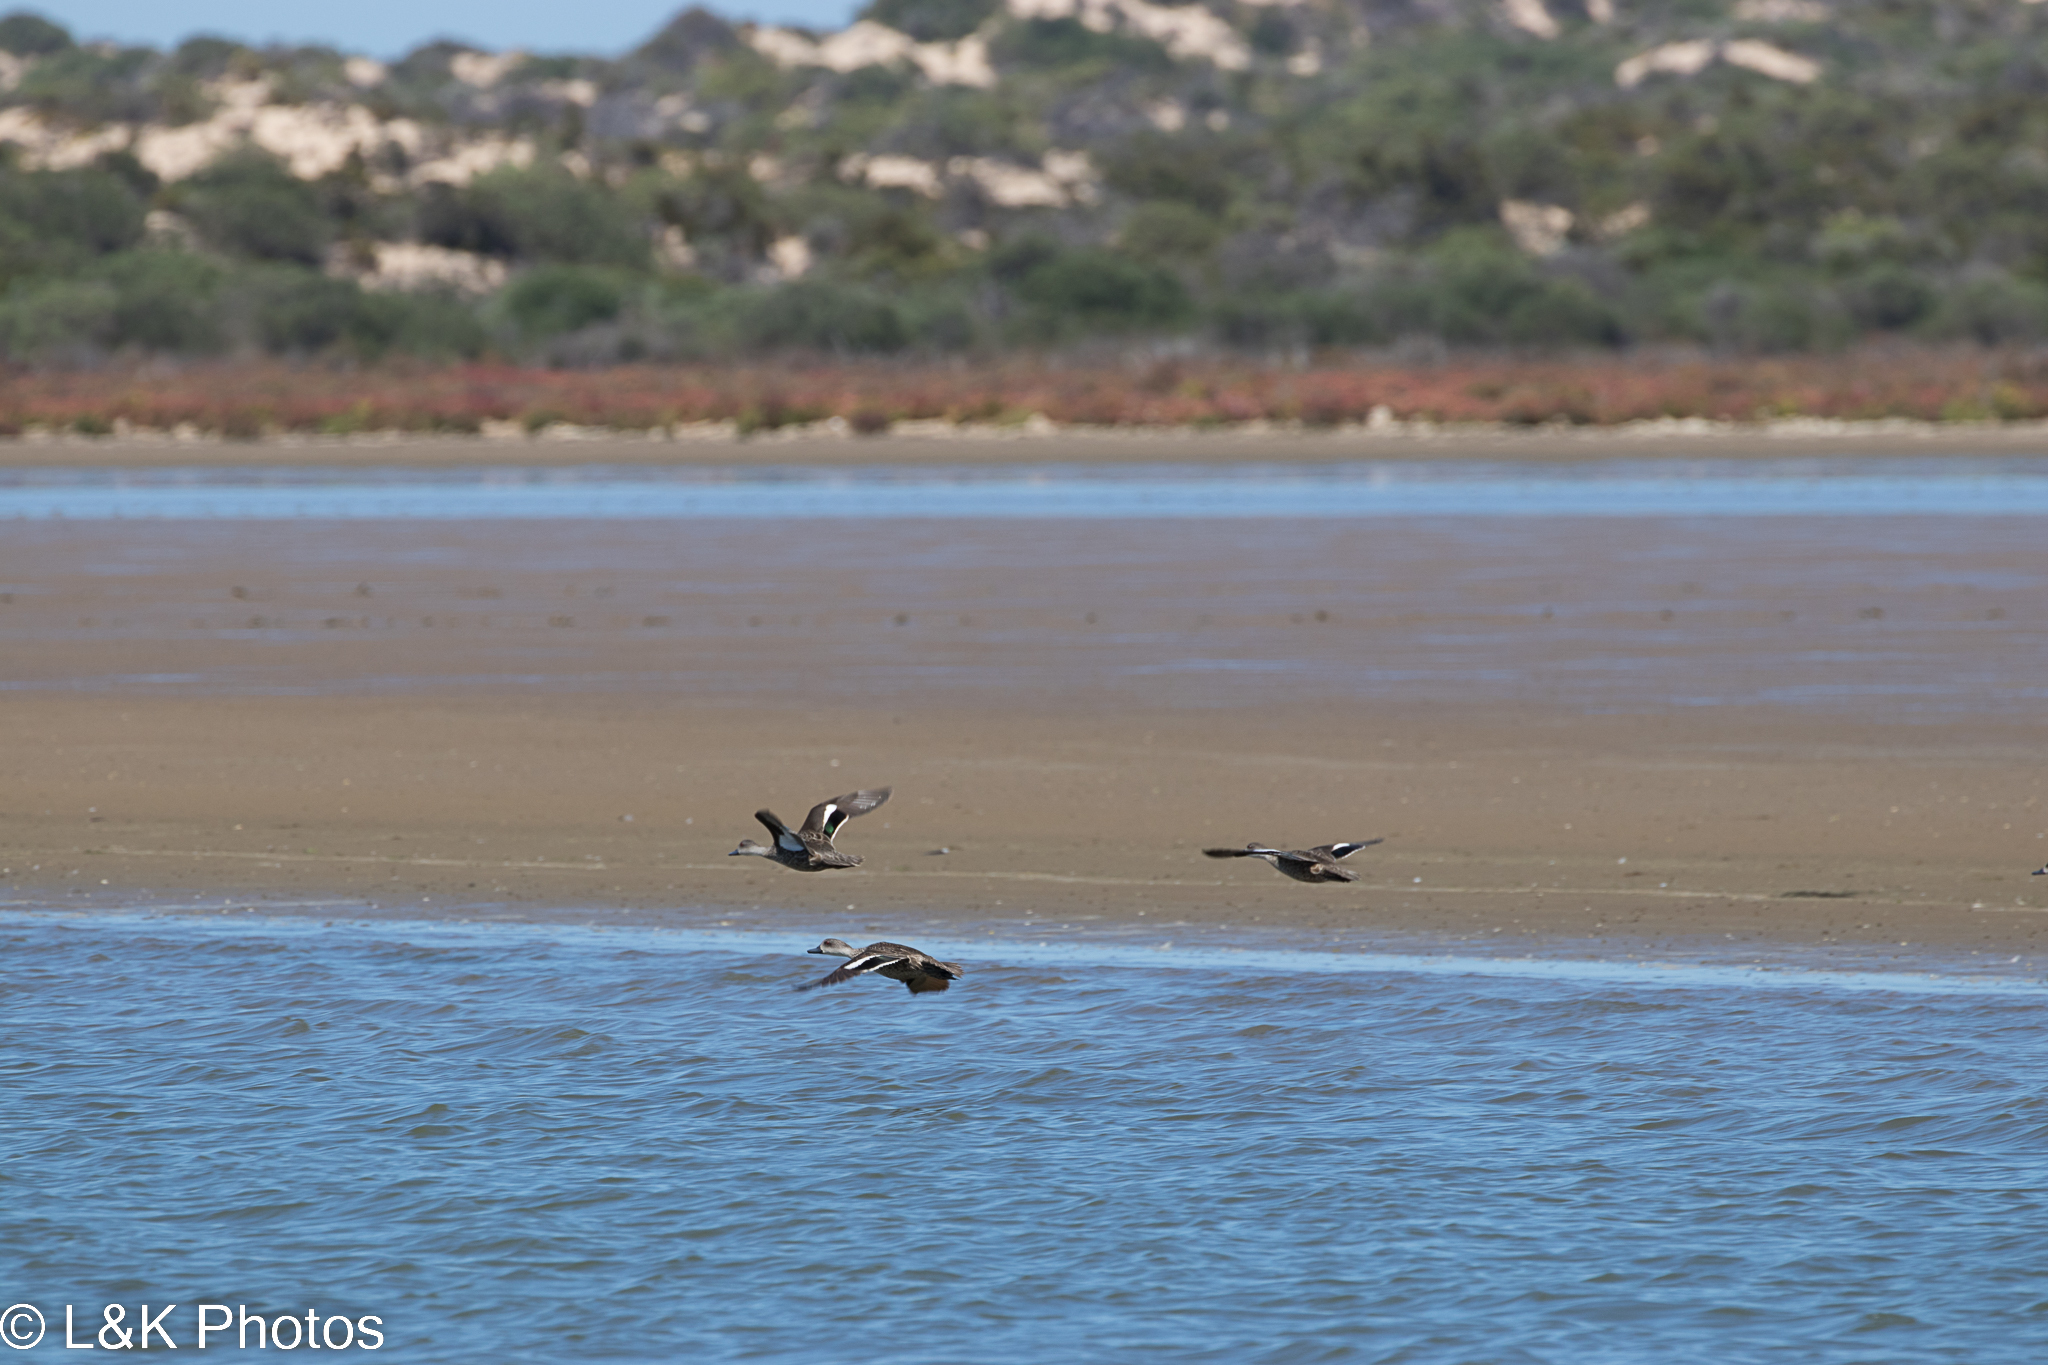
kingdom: Animalia
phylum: Chordata
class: Aves
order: Anseriformes
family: Anatidae
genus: Anas
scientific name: Anas gracilis
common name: Grey teal
